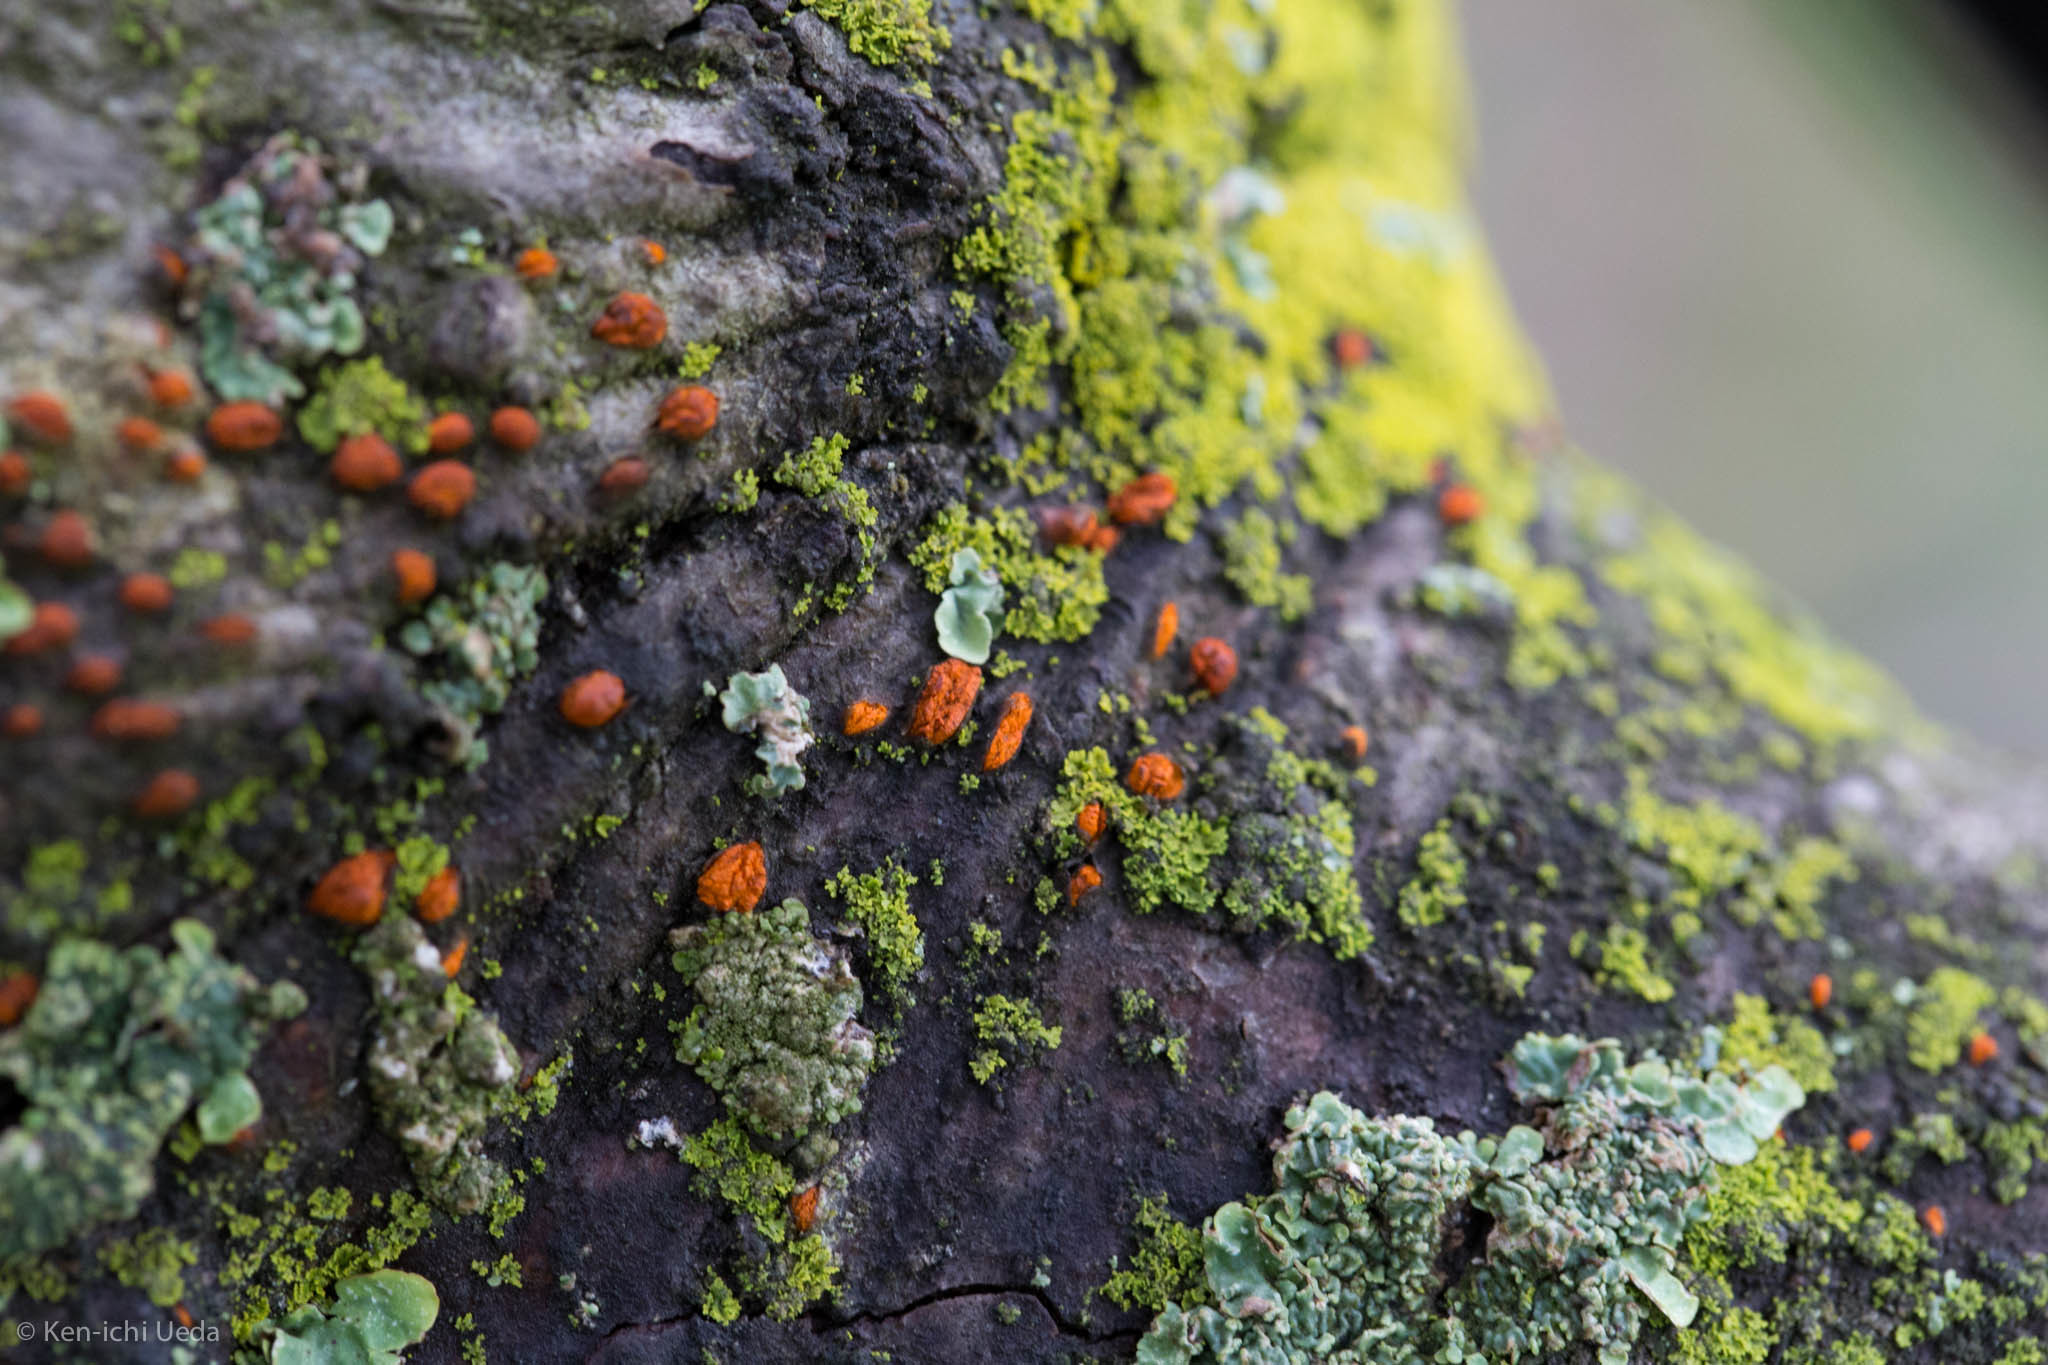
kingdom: Fungi
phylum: Ascomycota
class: Sordariomycetes
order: Diaporthales
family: Cryphonectriaceae
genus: Amphilogia
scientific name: Amphilogia gyrosa
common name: Orange hobnail canker
